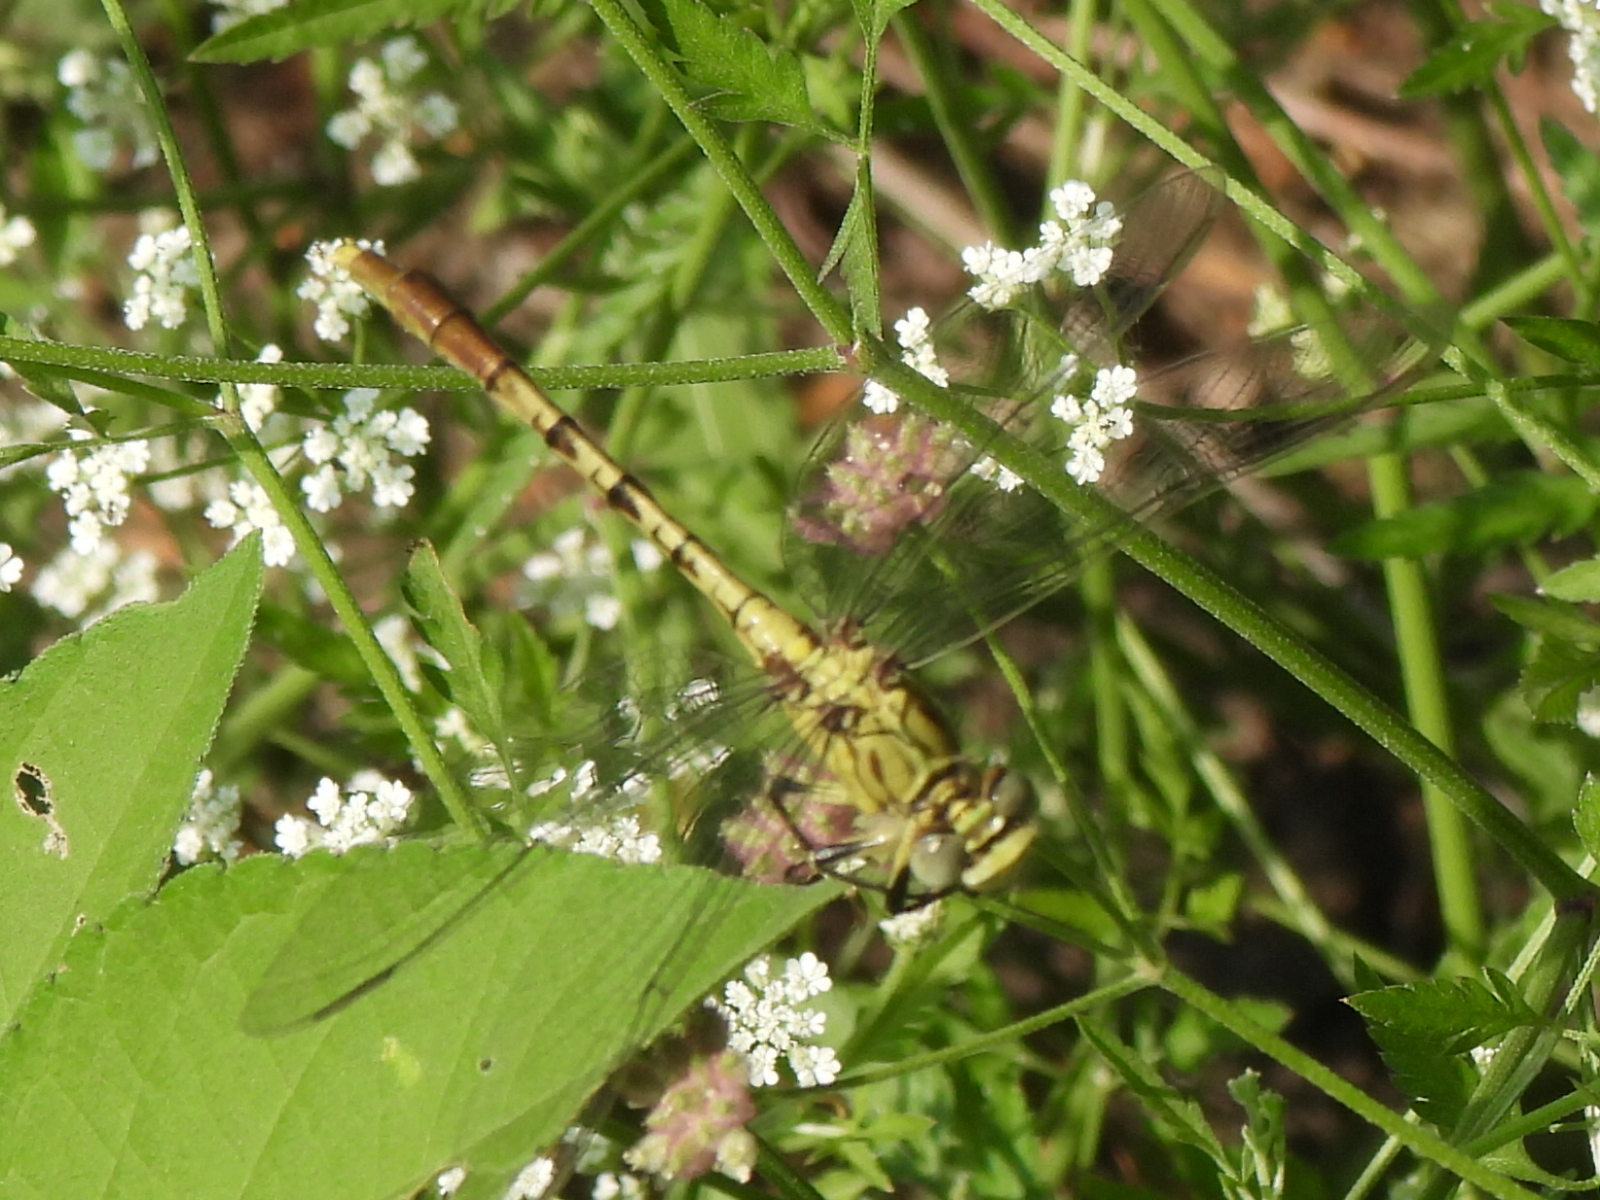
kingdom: Animalia
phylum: Arthropoda
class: Insecta
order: Odonata
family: Gomphidae
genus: Arigomphus
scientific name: Arigomphus submedianus
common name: Jade clubtail
